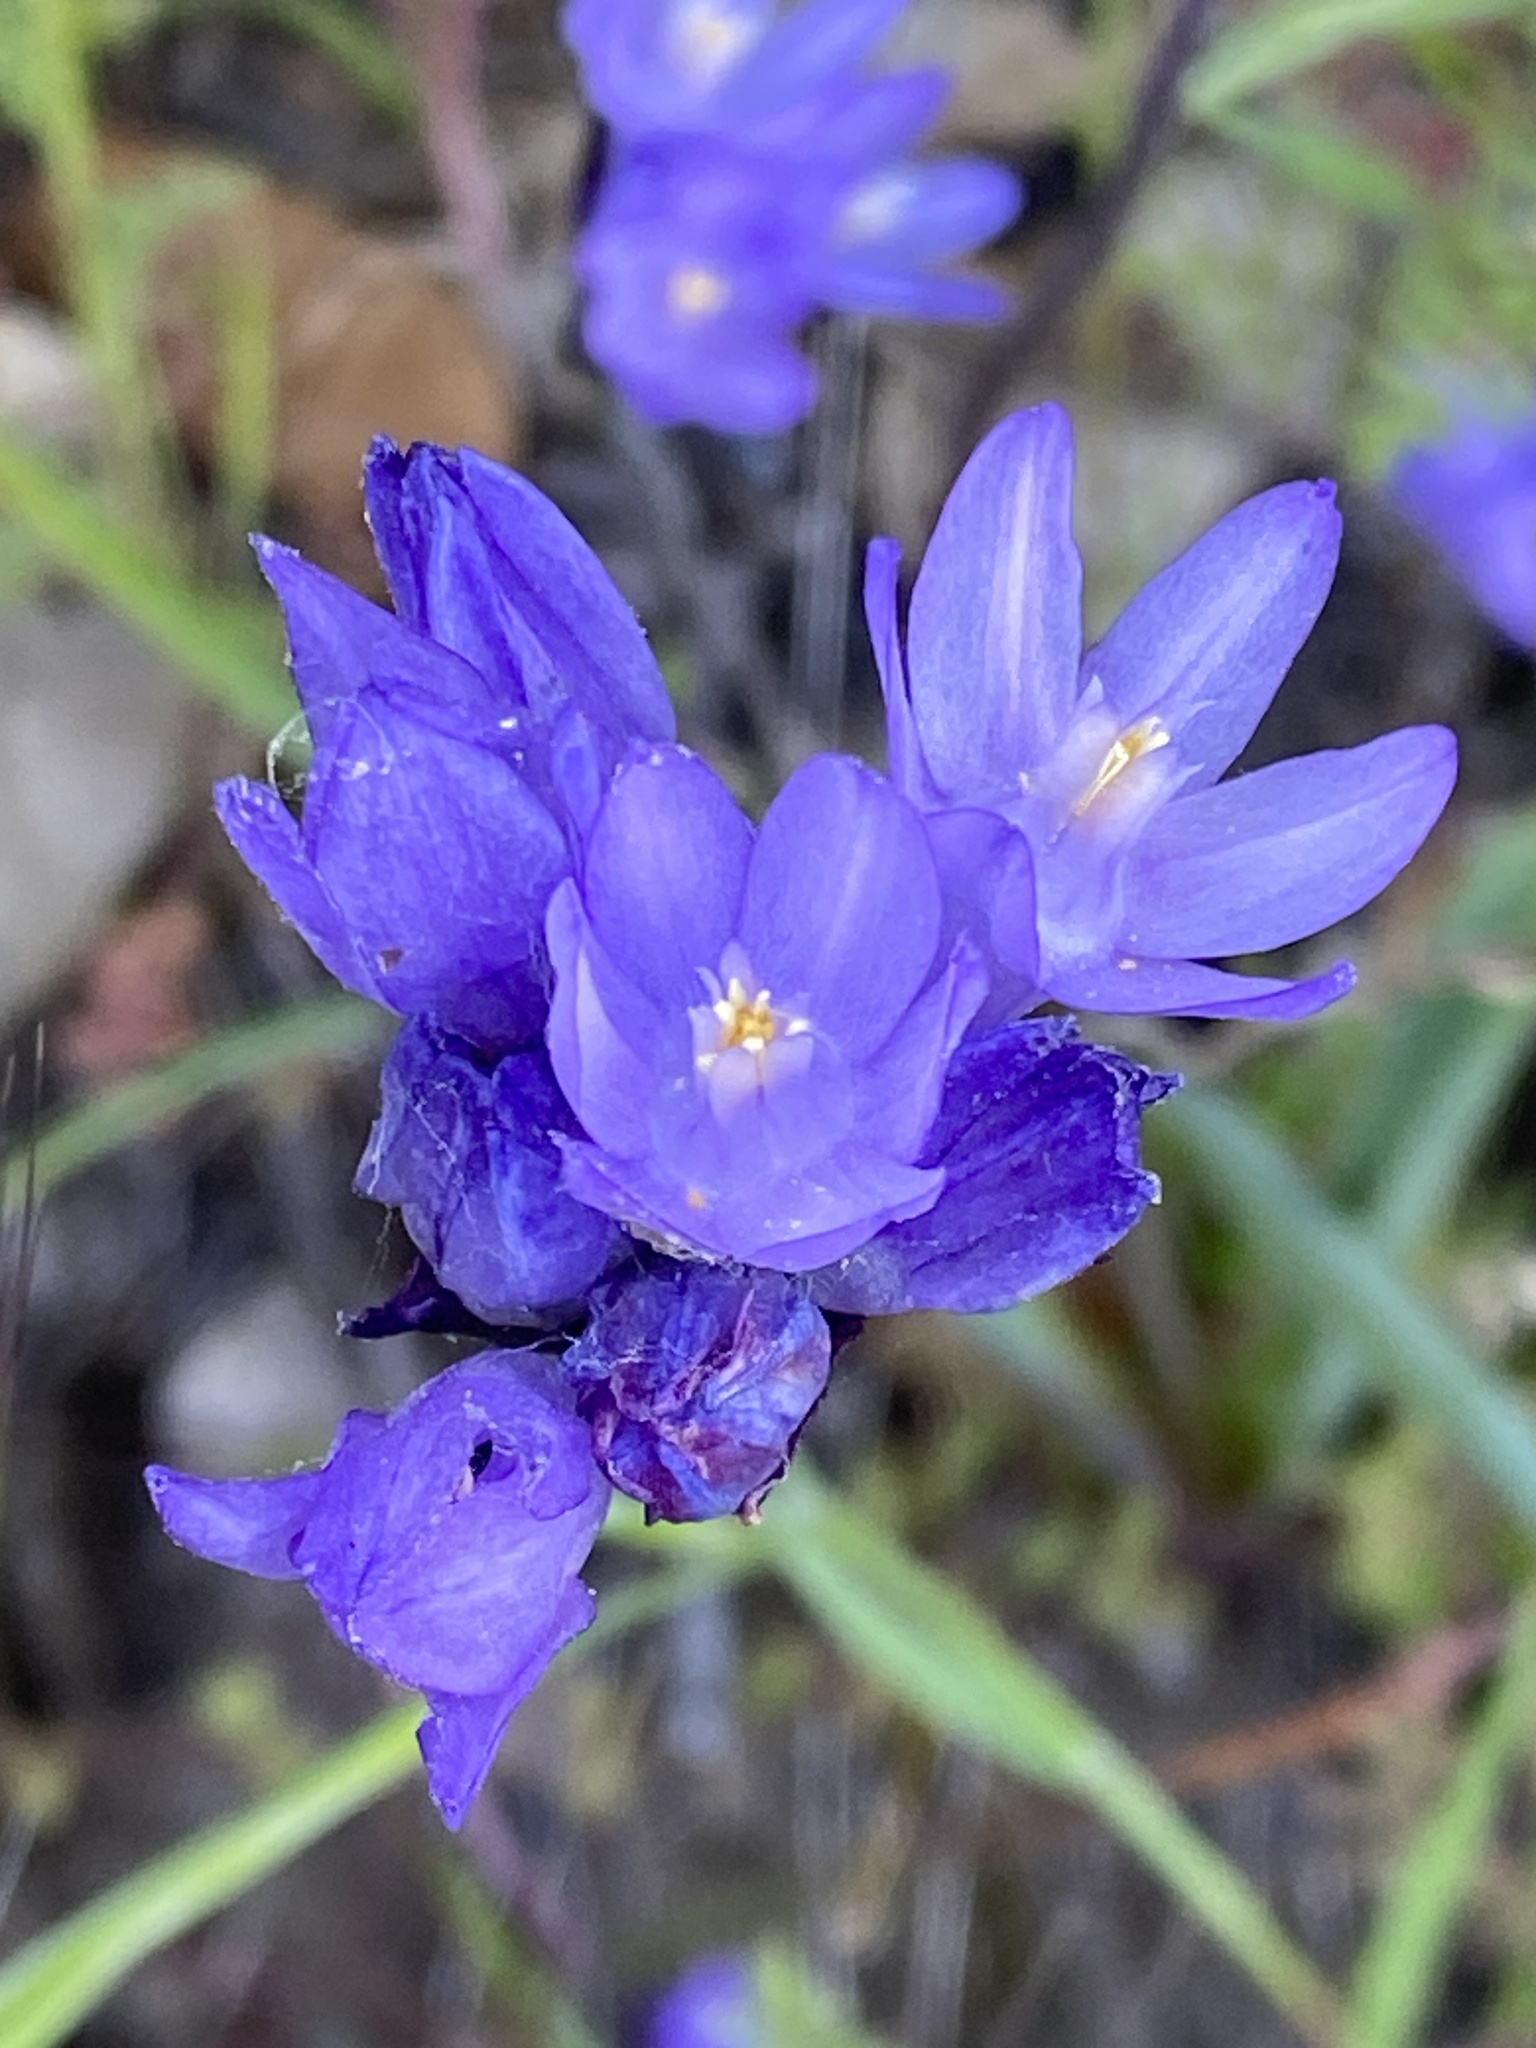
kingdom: Plantae
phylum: Tracheophyta
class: Liliopsida
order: Asparagales
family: Asparagaceae
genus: Dipterostemon
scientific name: Dipterostemon capitatus
